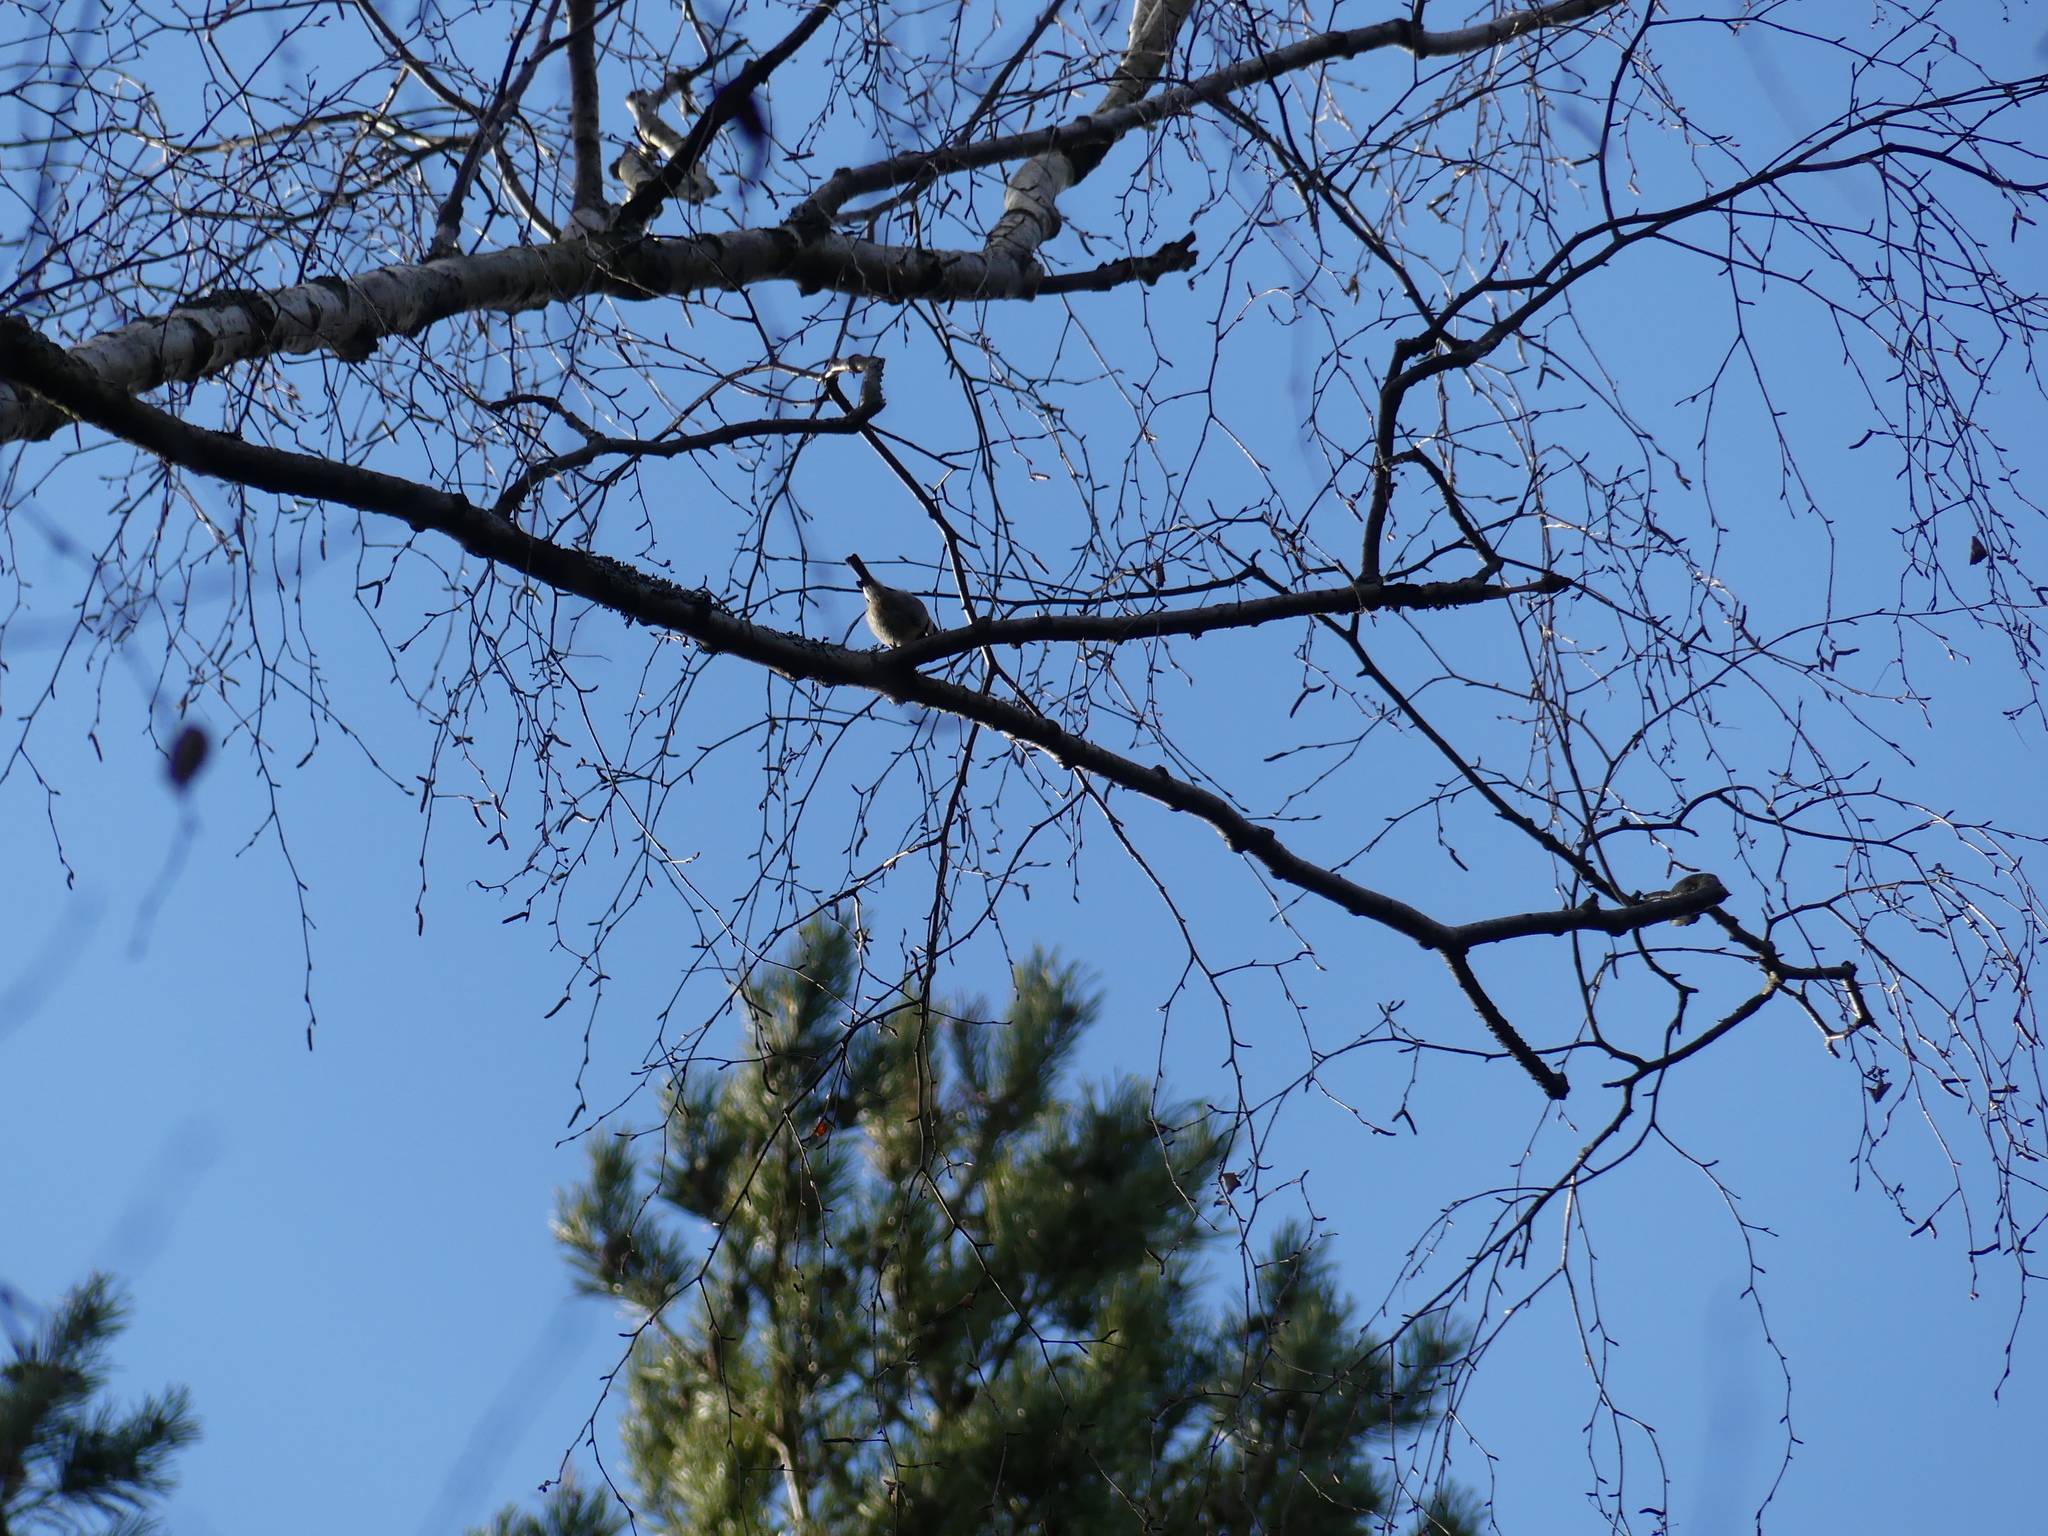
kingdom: Animalia
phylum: Chordata
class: Aves
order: Passeriformes
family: Paridae
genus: Periparus
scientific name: Periparus ater
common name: Coal tit
